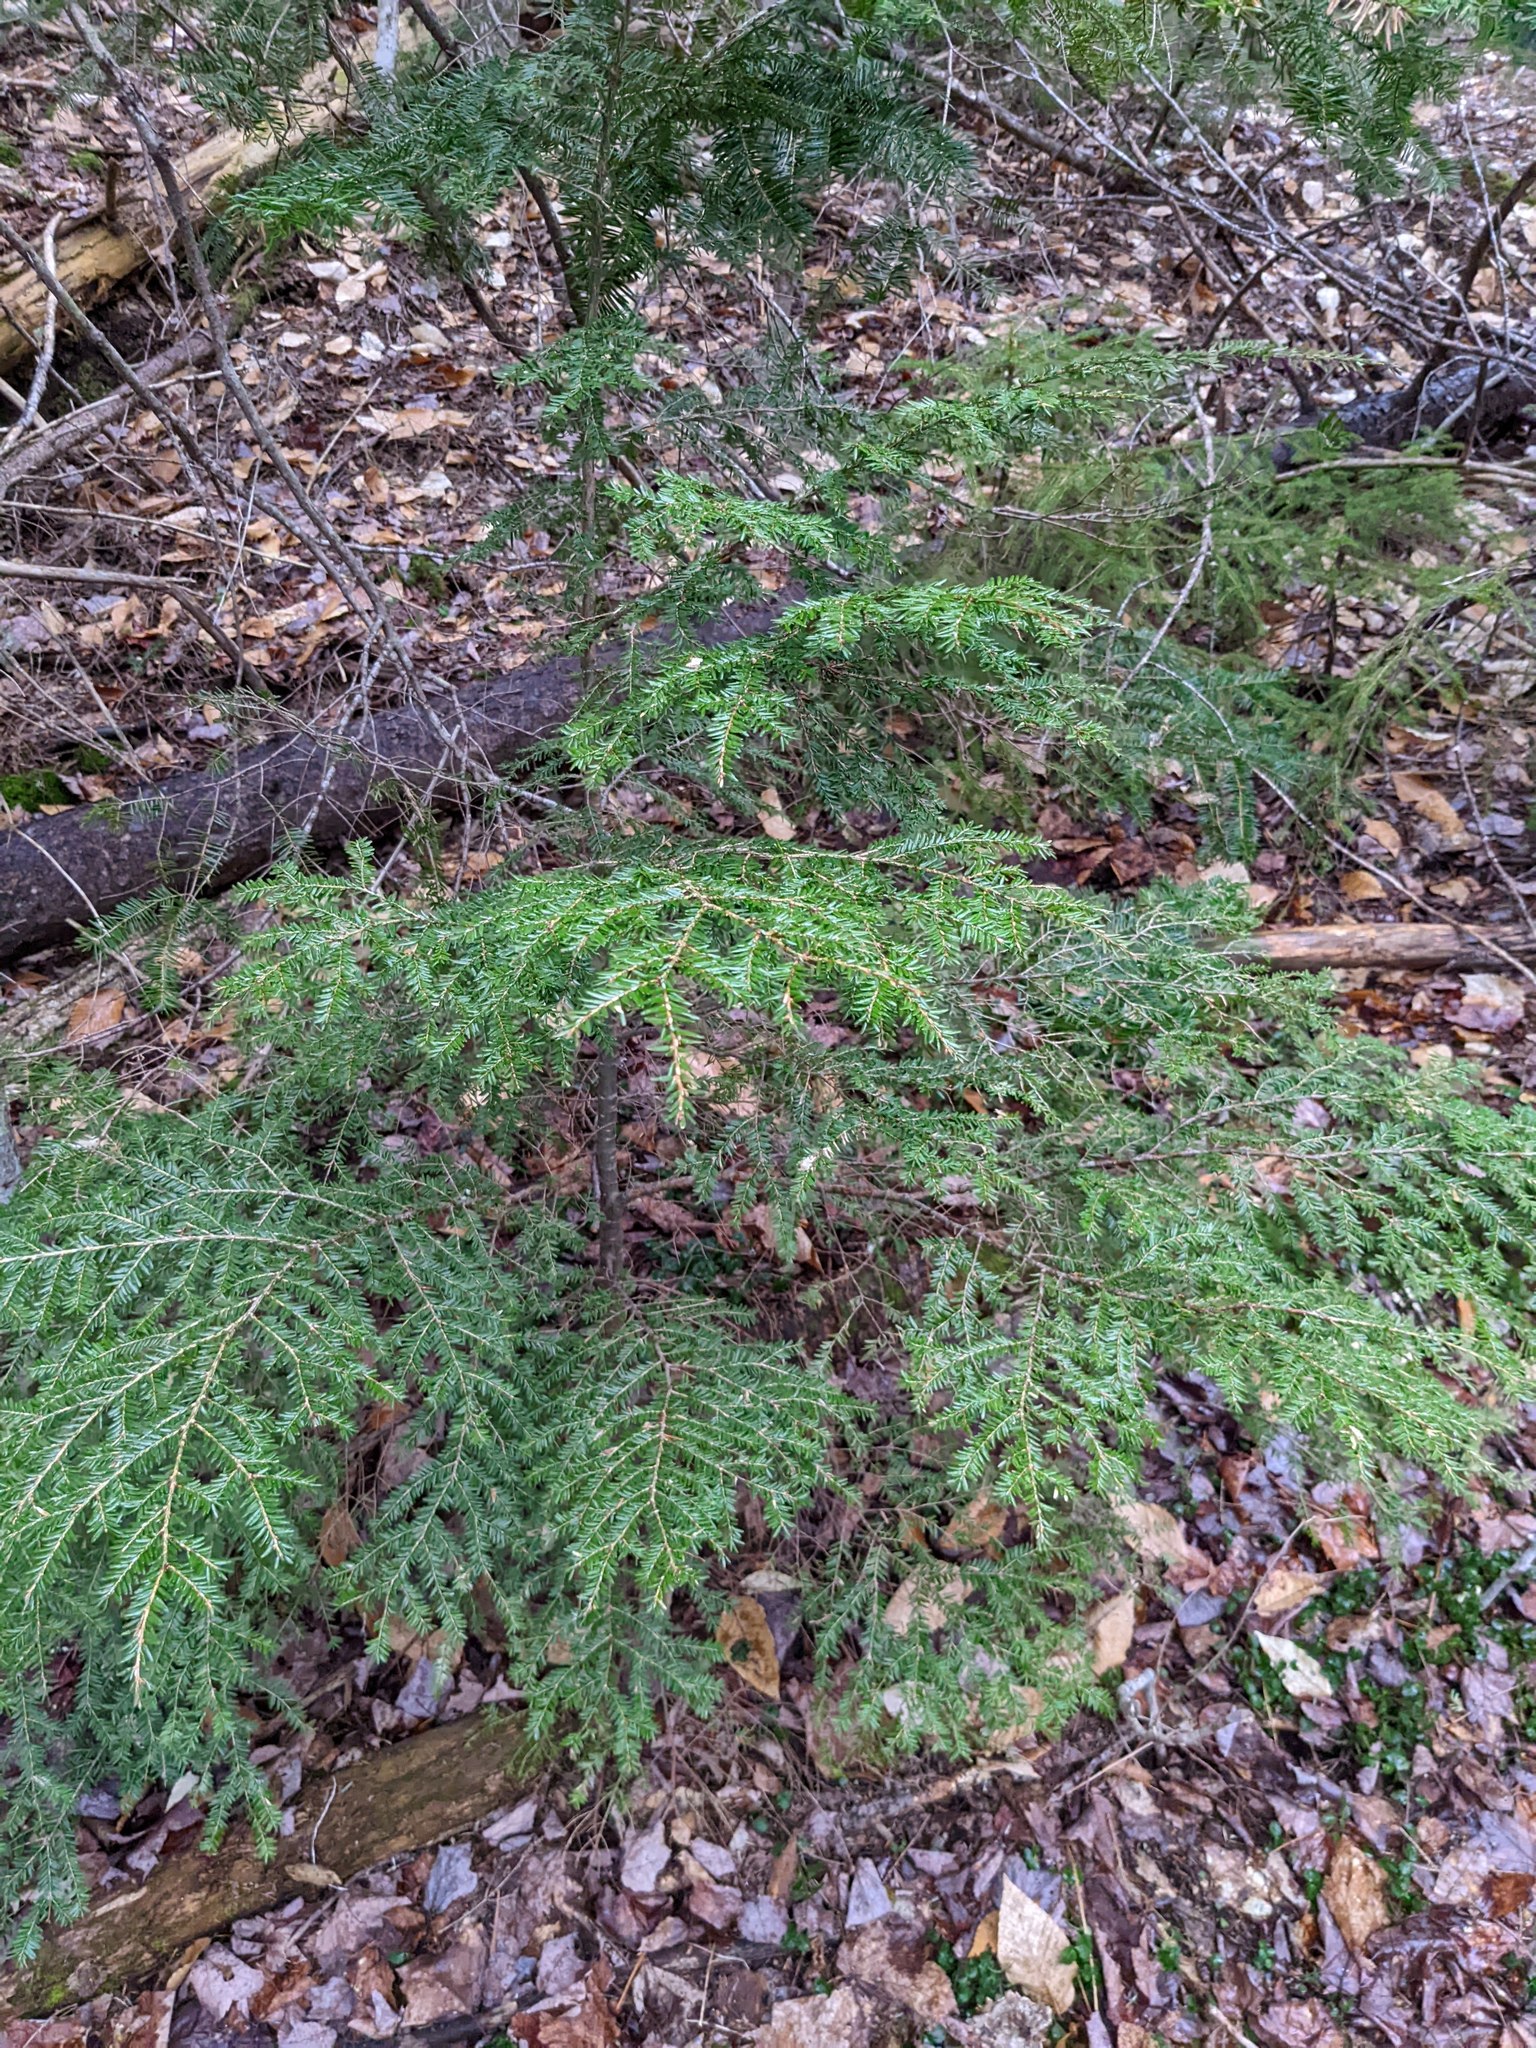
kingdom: Plantae
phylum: Tracheophyta
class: Pinopsida
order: Pinales
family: Pinaceae
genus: Tsuga
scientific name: Tsuga canadensis
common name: Eastern hemlock
